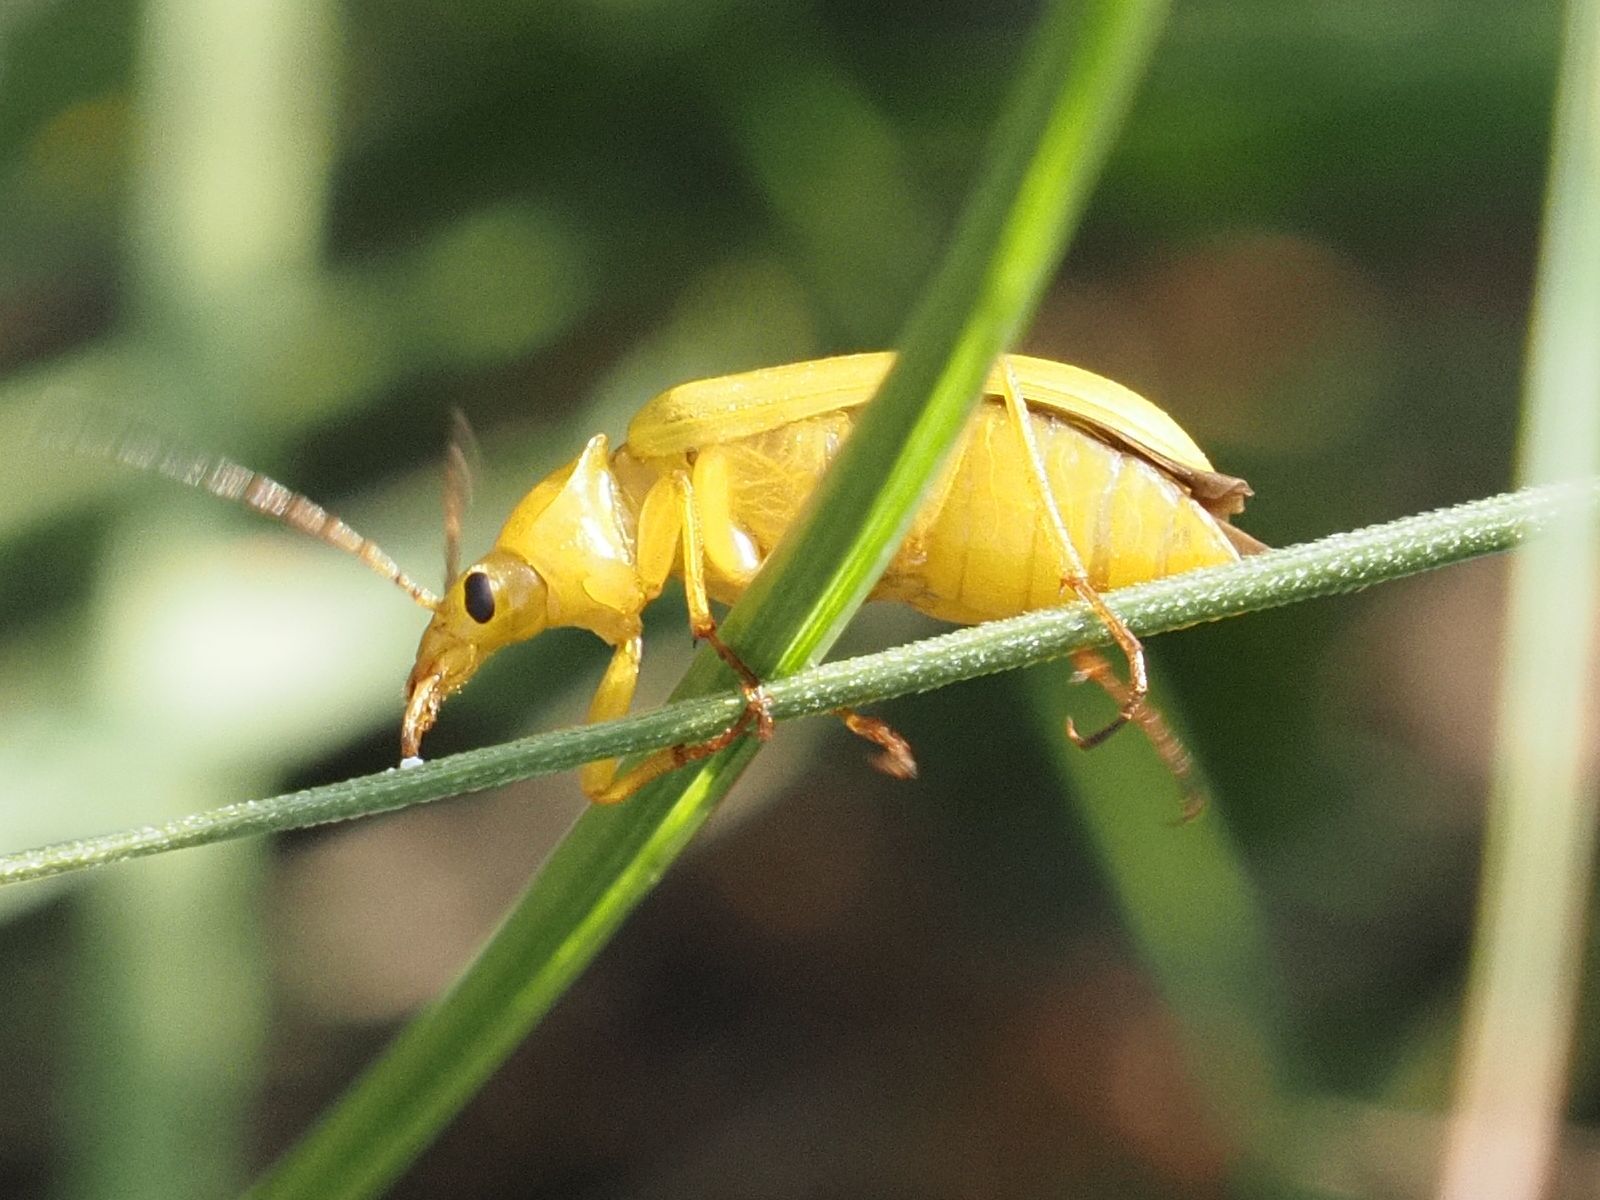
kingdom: Animalia
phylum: Arthropoda
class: Insecta
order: Coleoptera
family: Tenebrionidae
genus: Cteniopus
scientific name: Cteniopus sulphureus
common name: Sulphur beetle
